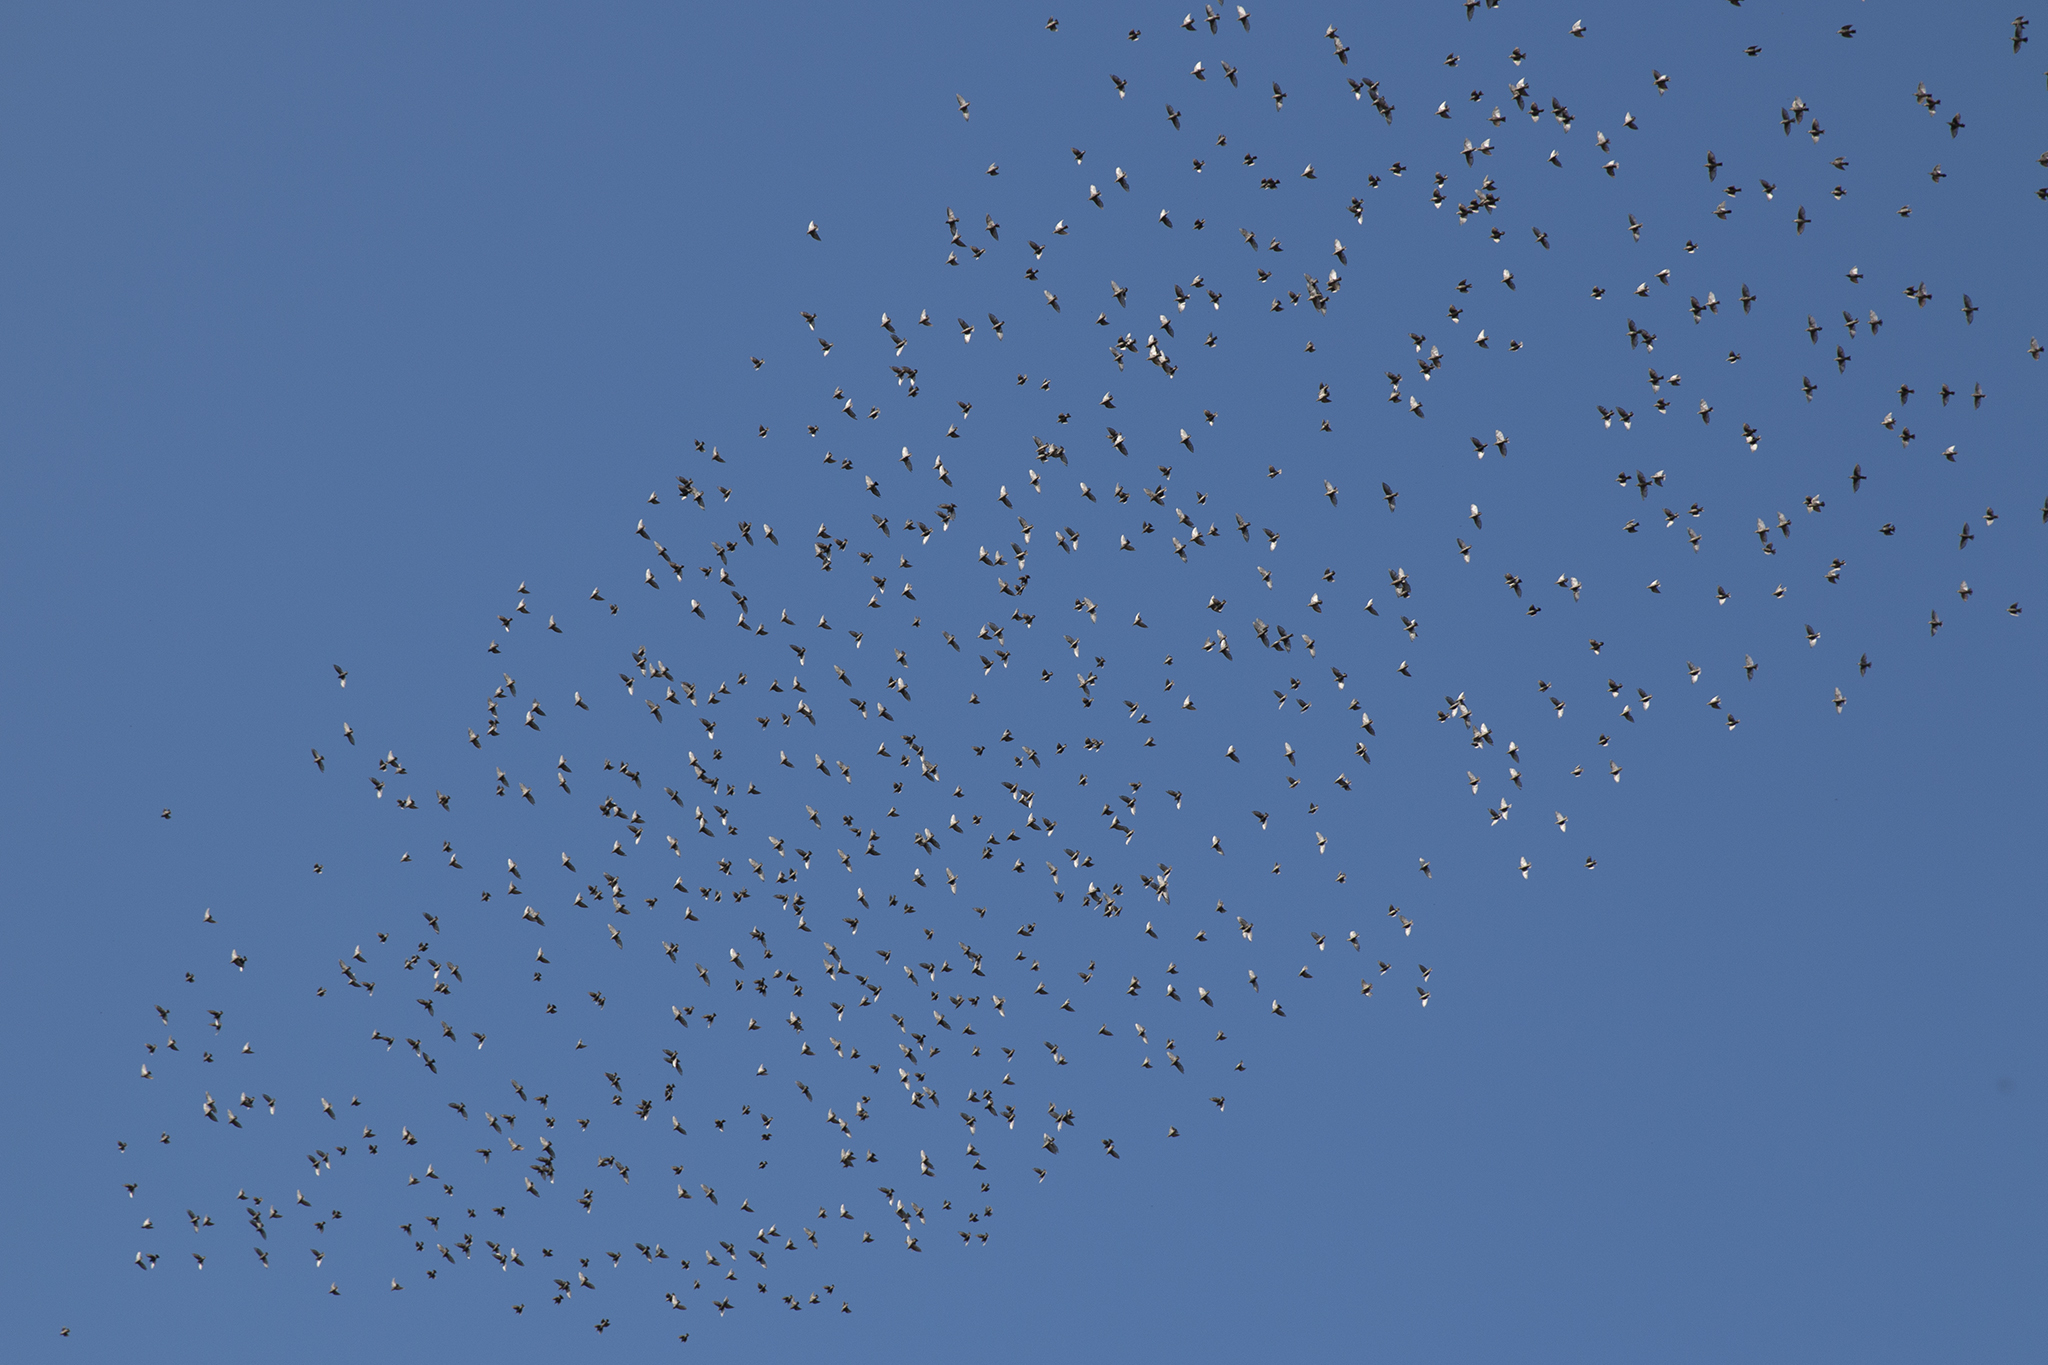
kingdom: Animalia
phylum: Chordata
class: Aves
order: Passeriformes
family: Sturnidae
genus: Sturnus
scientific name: Sturnus vulgaris
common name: Common starling
